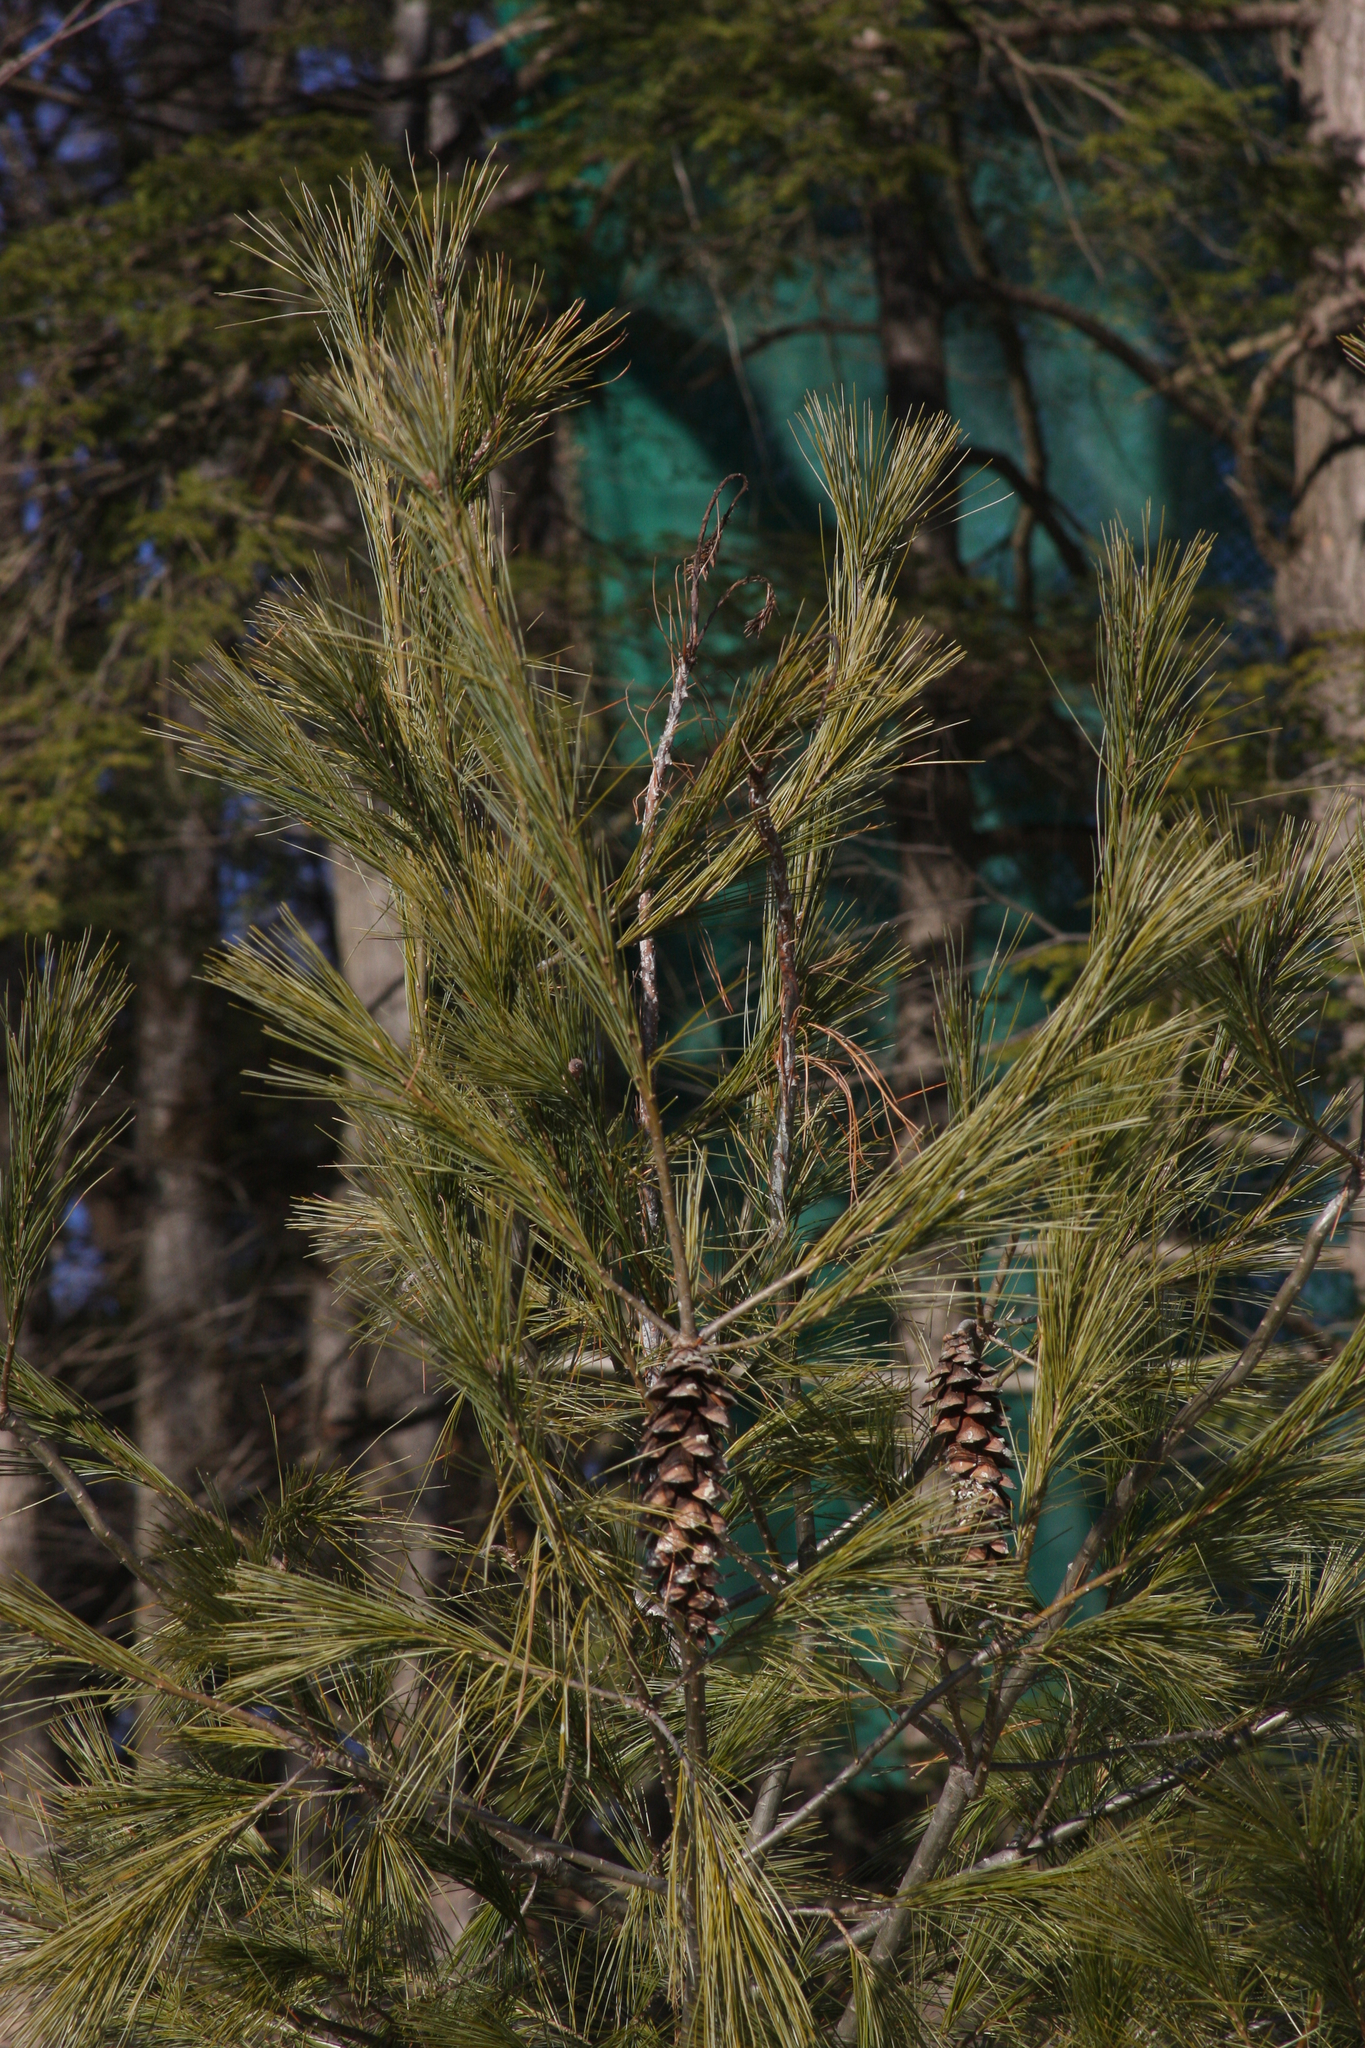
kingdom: Plantae
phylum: Tracheophyta
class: Pinopsida
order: Pinales
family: Pinaceae
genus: Pinus
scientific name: Pinus strobus
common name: Weymouth pine
